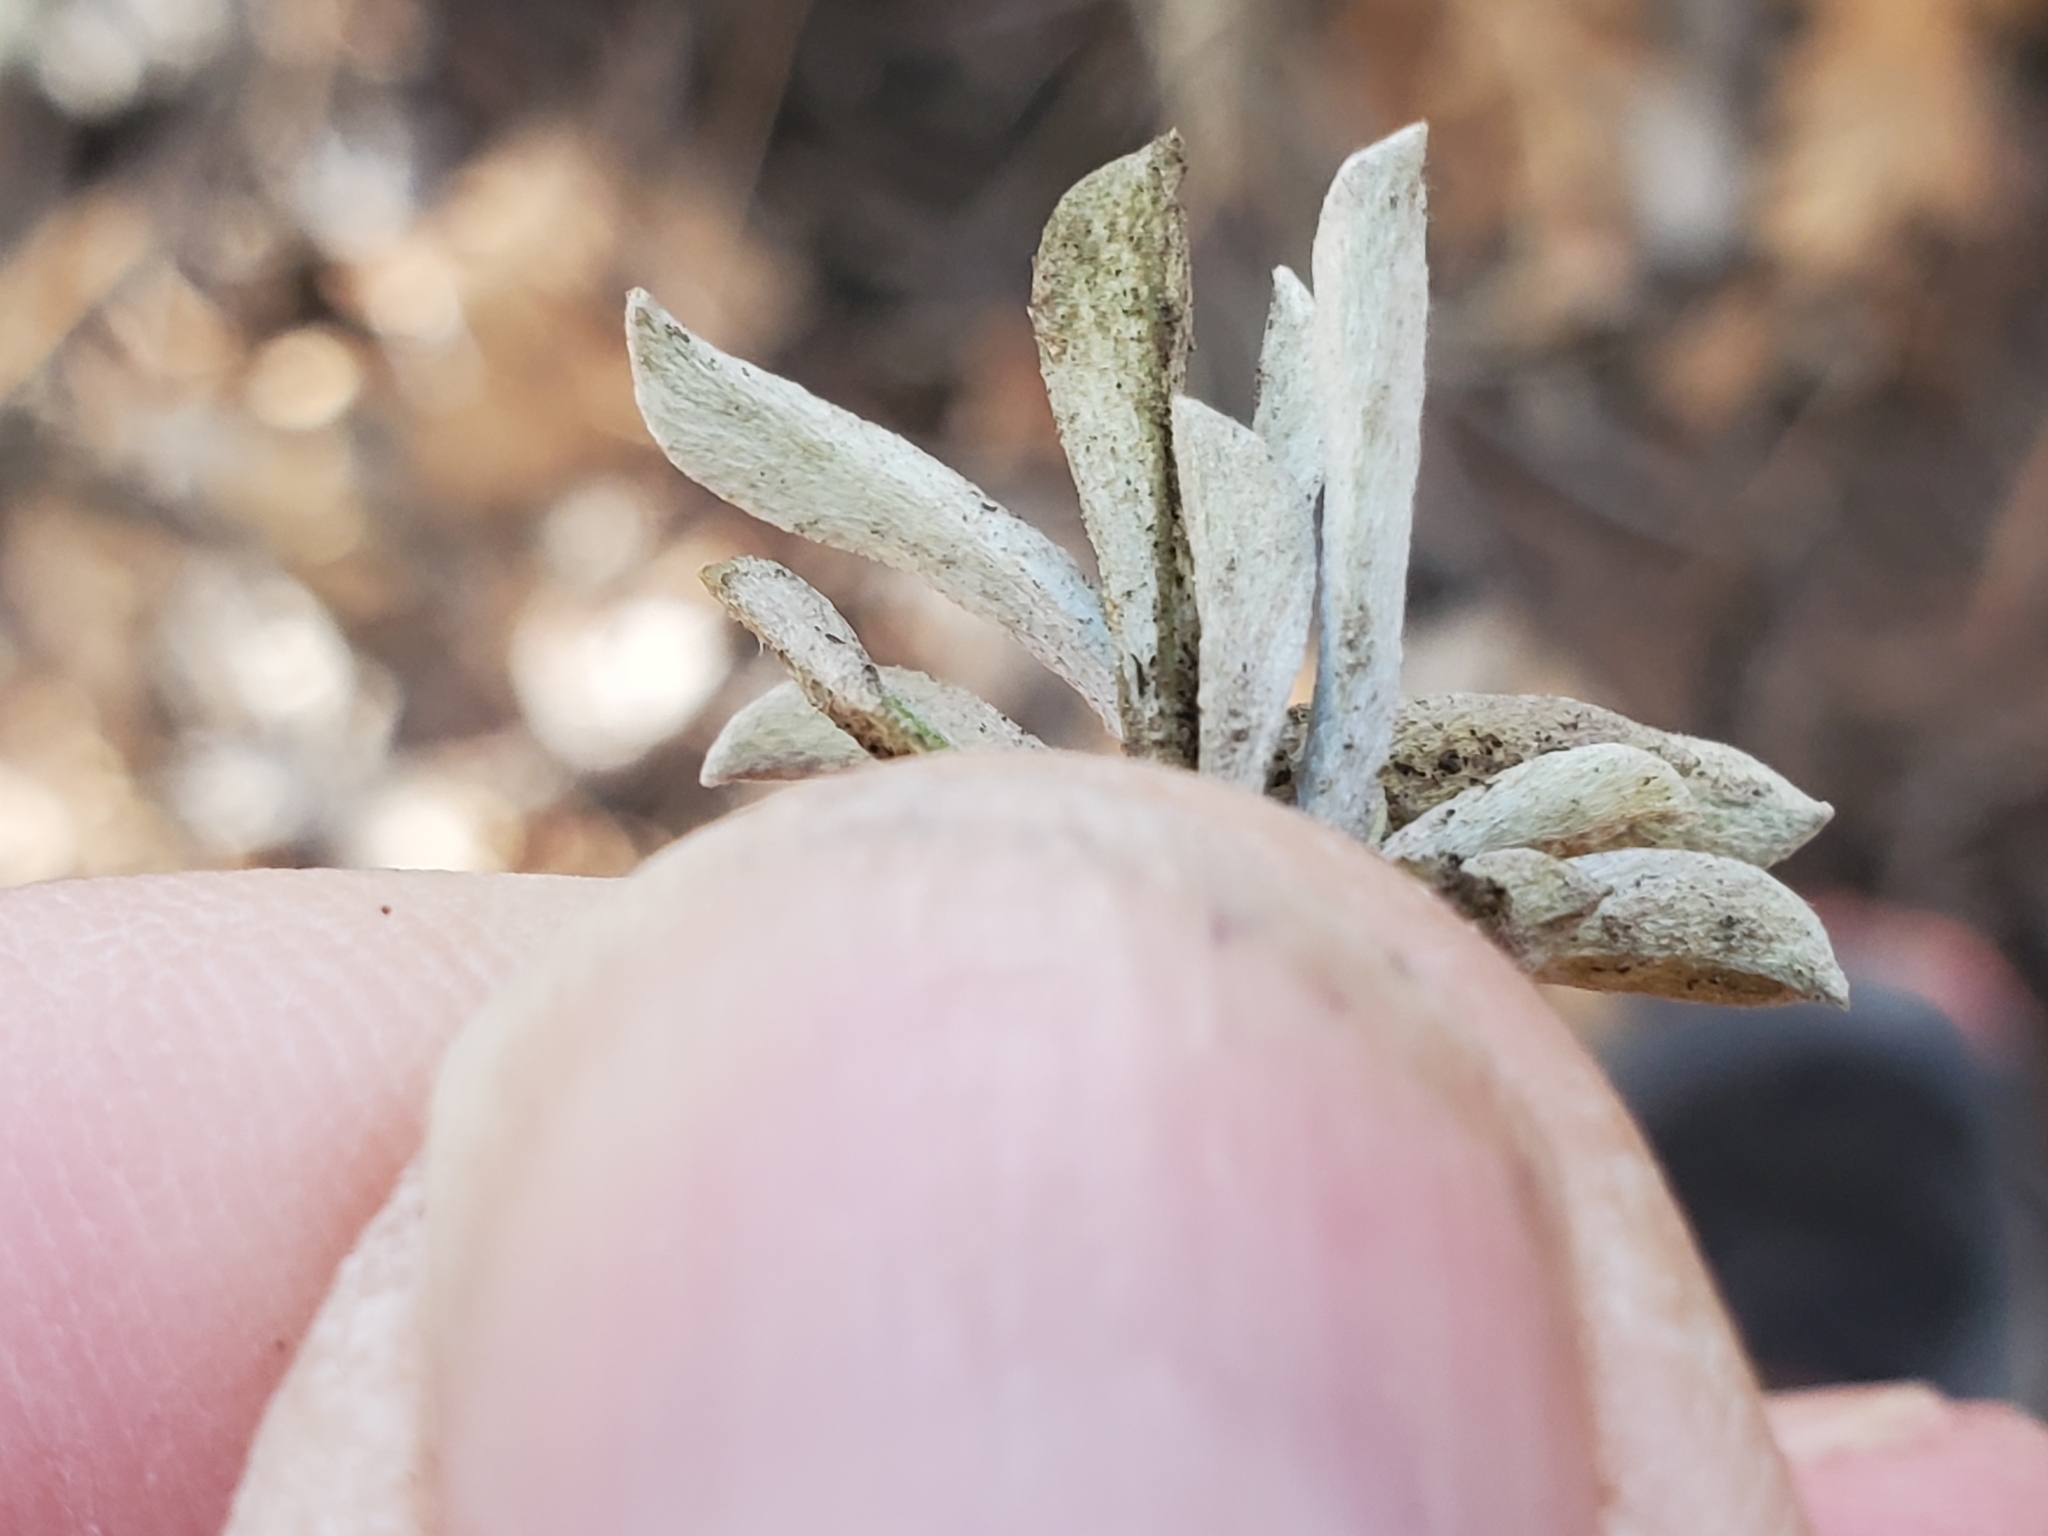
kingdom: Plantae
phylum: Tracheophyta
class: Magnoliopsida
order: Asterales
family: Asteraceae
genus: Antennaria
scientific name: Antennaria marginata
